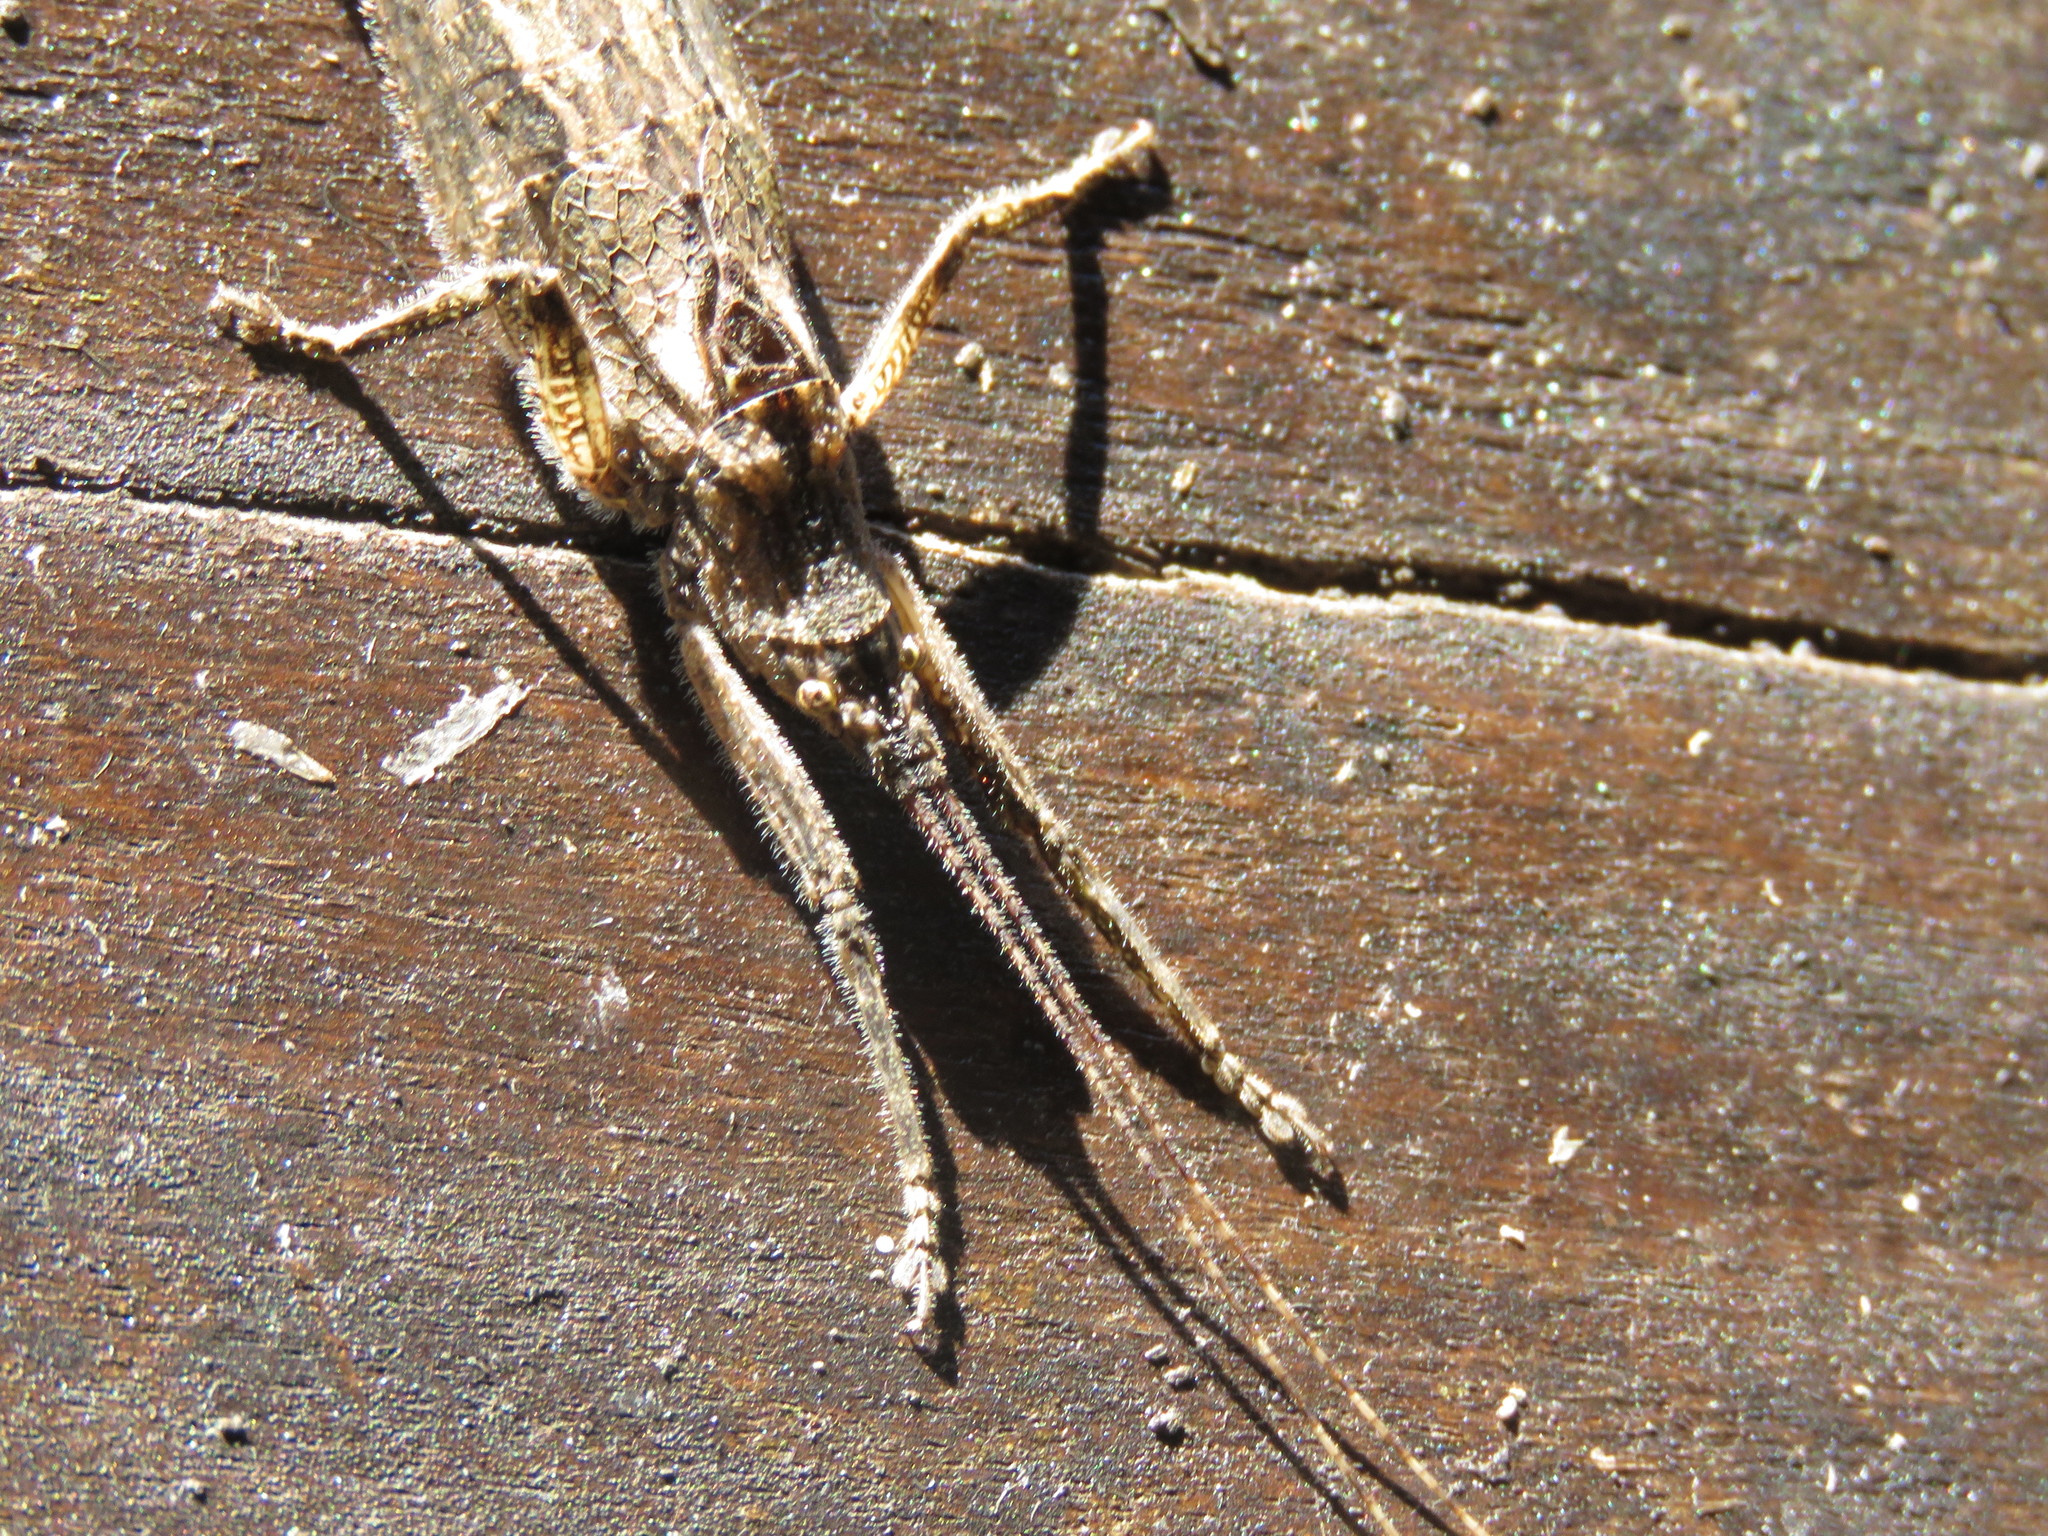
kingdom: Animalia
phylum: Arthropoda
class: Insecta
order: Orthoptera
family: Tettigoniidae
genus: Dasyscelus
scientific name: Dasyscelus normalis
